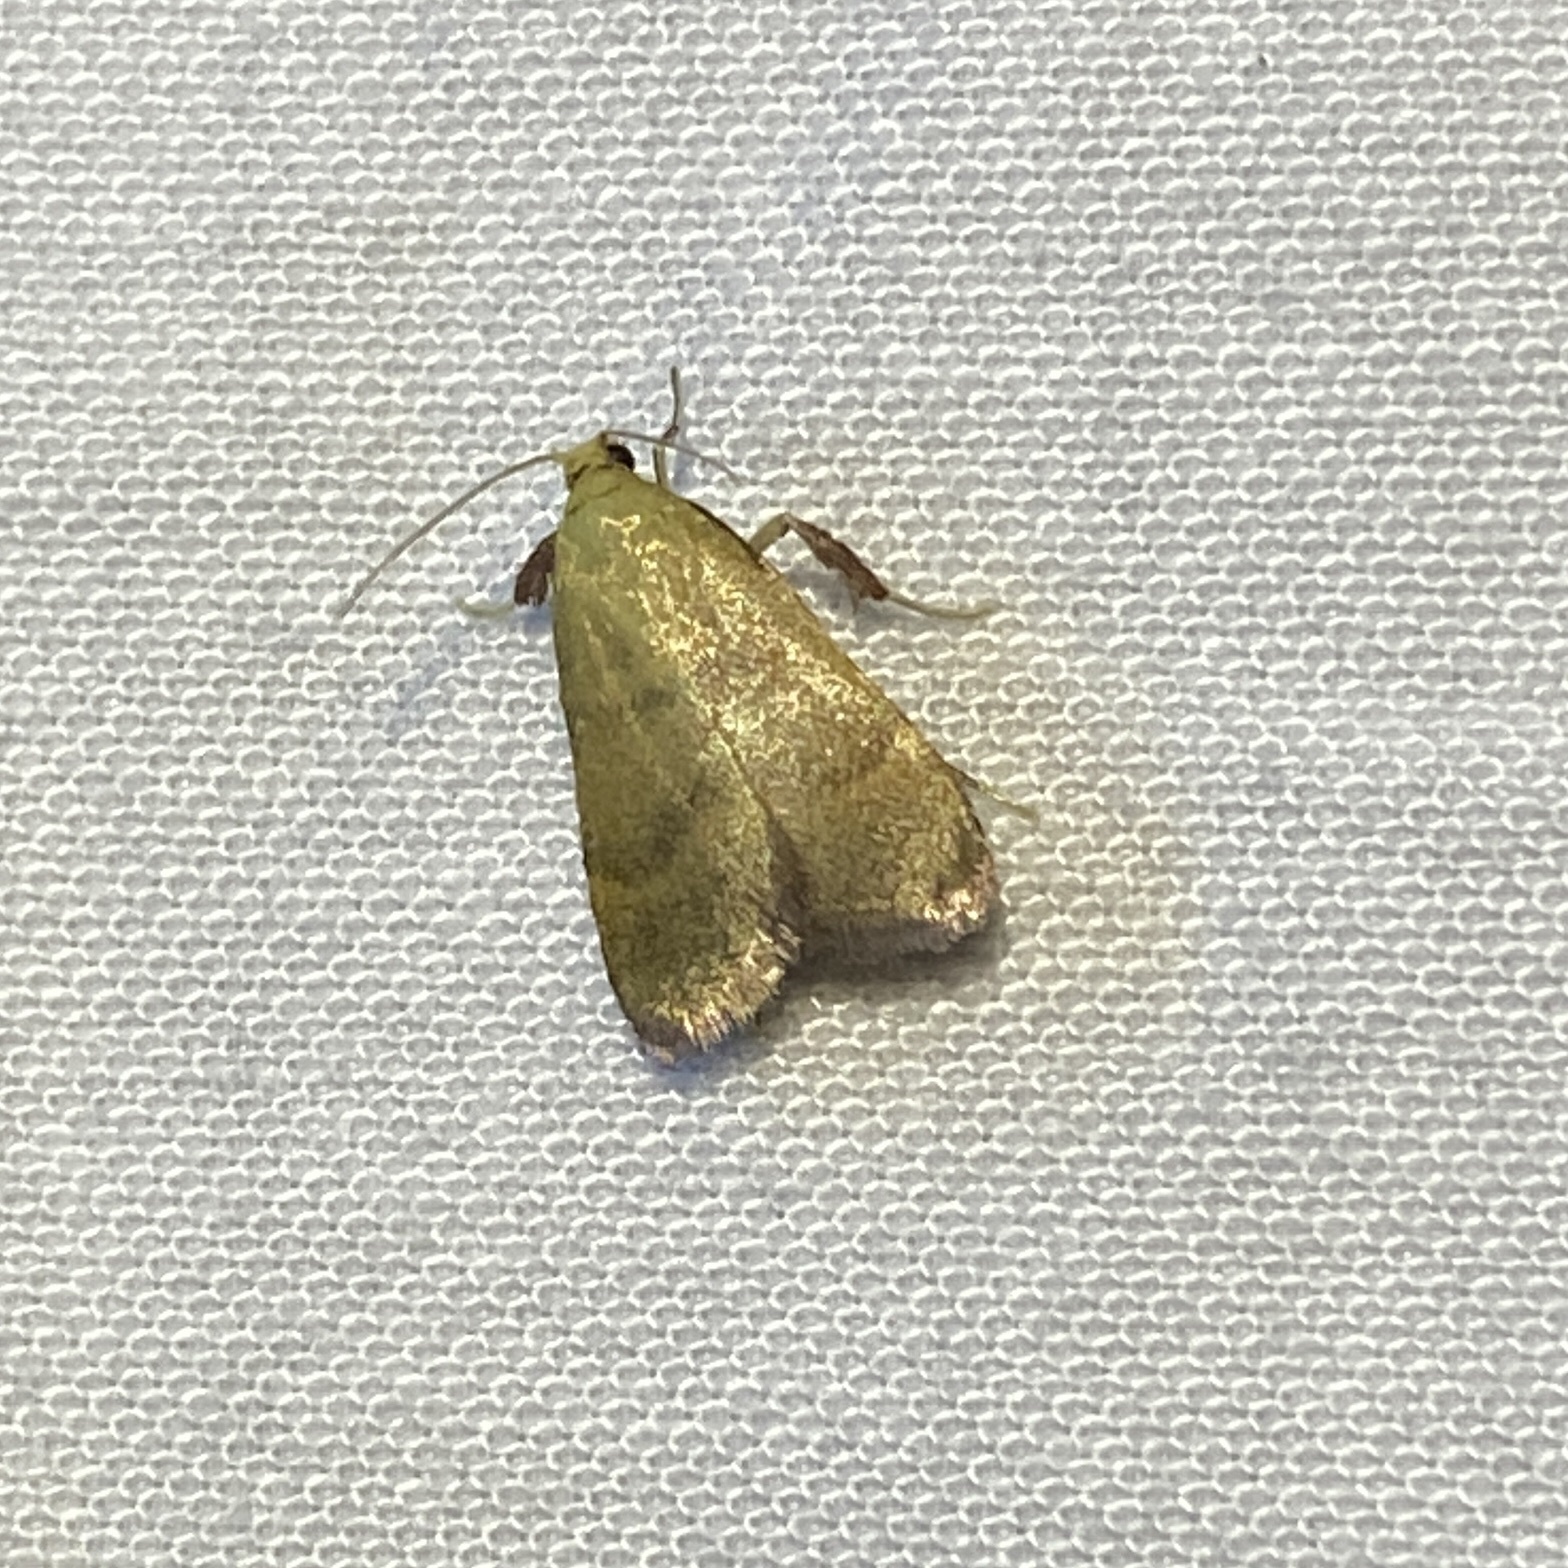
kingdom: Animalia
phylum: Arthropoda
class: Insecta
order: Lepidoptera
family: Pyralidae
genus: Condylolomia
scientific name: Condylolomia participialis
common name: Drab condylolomia moth
